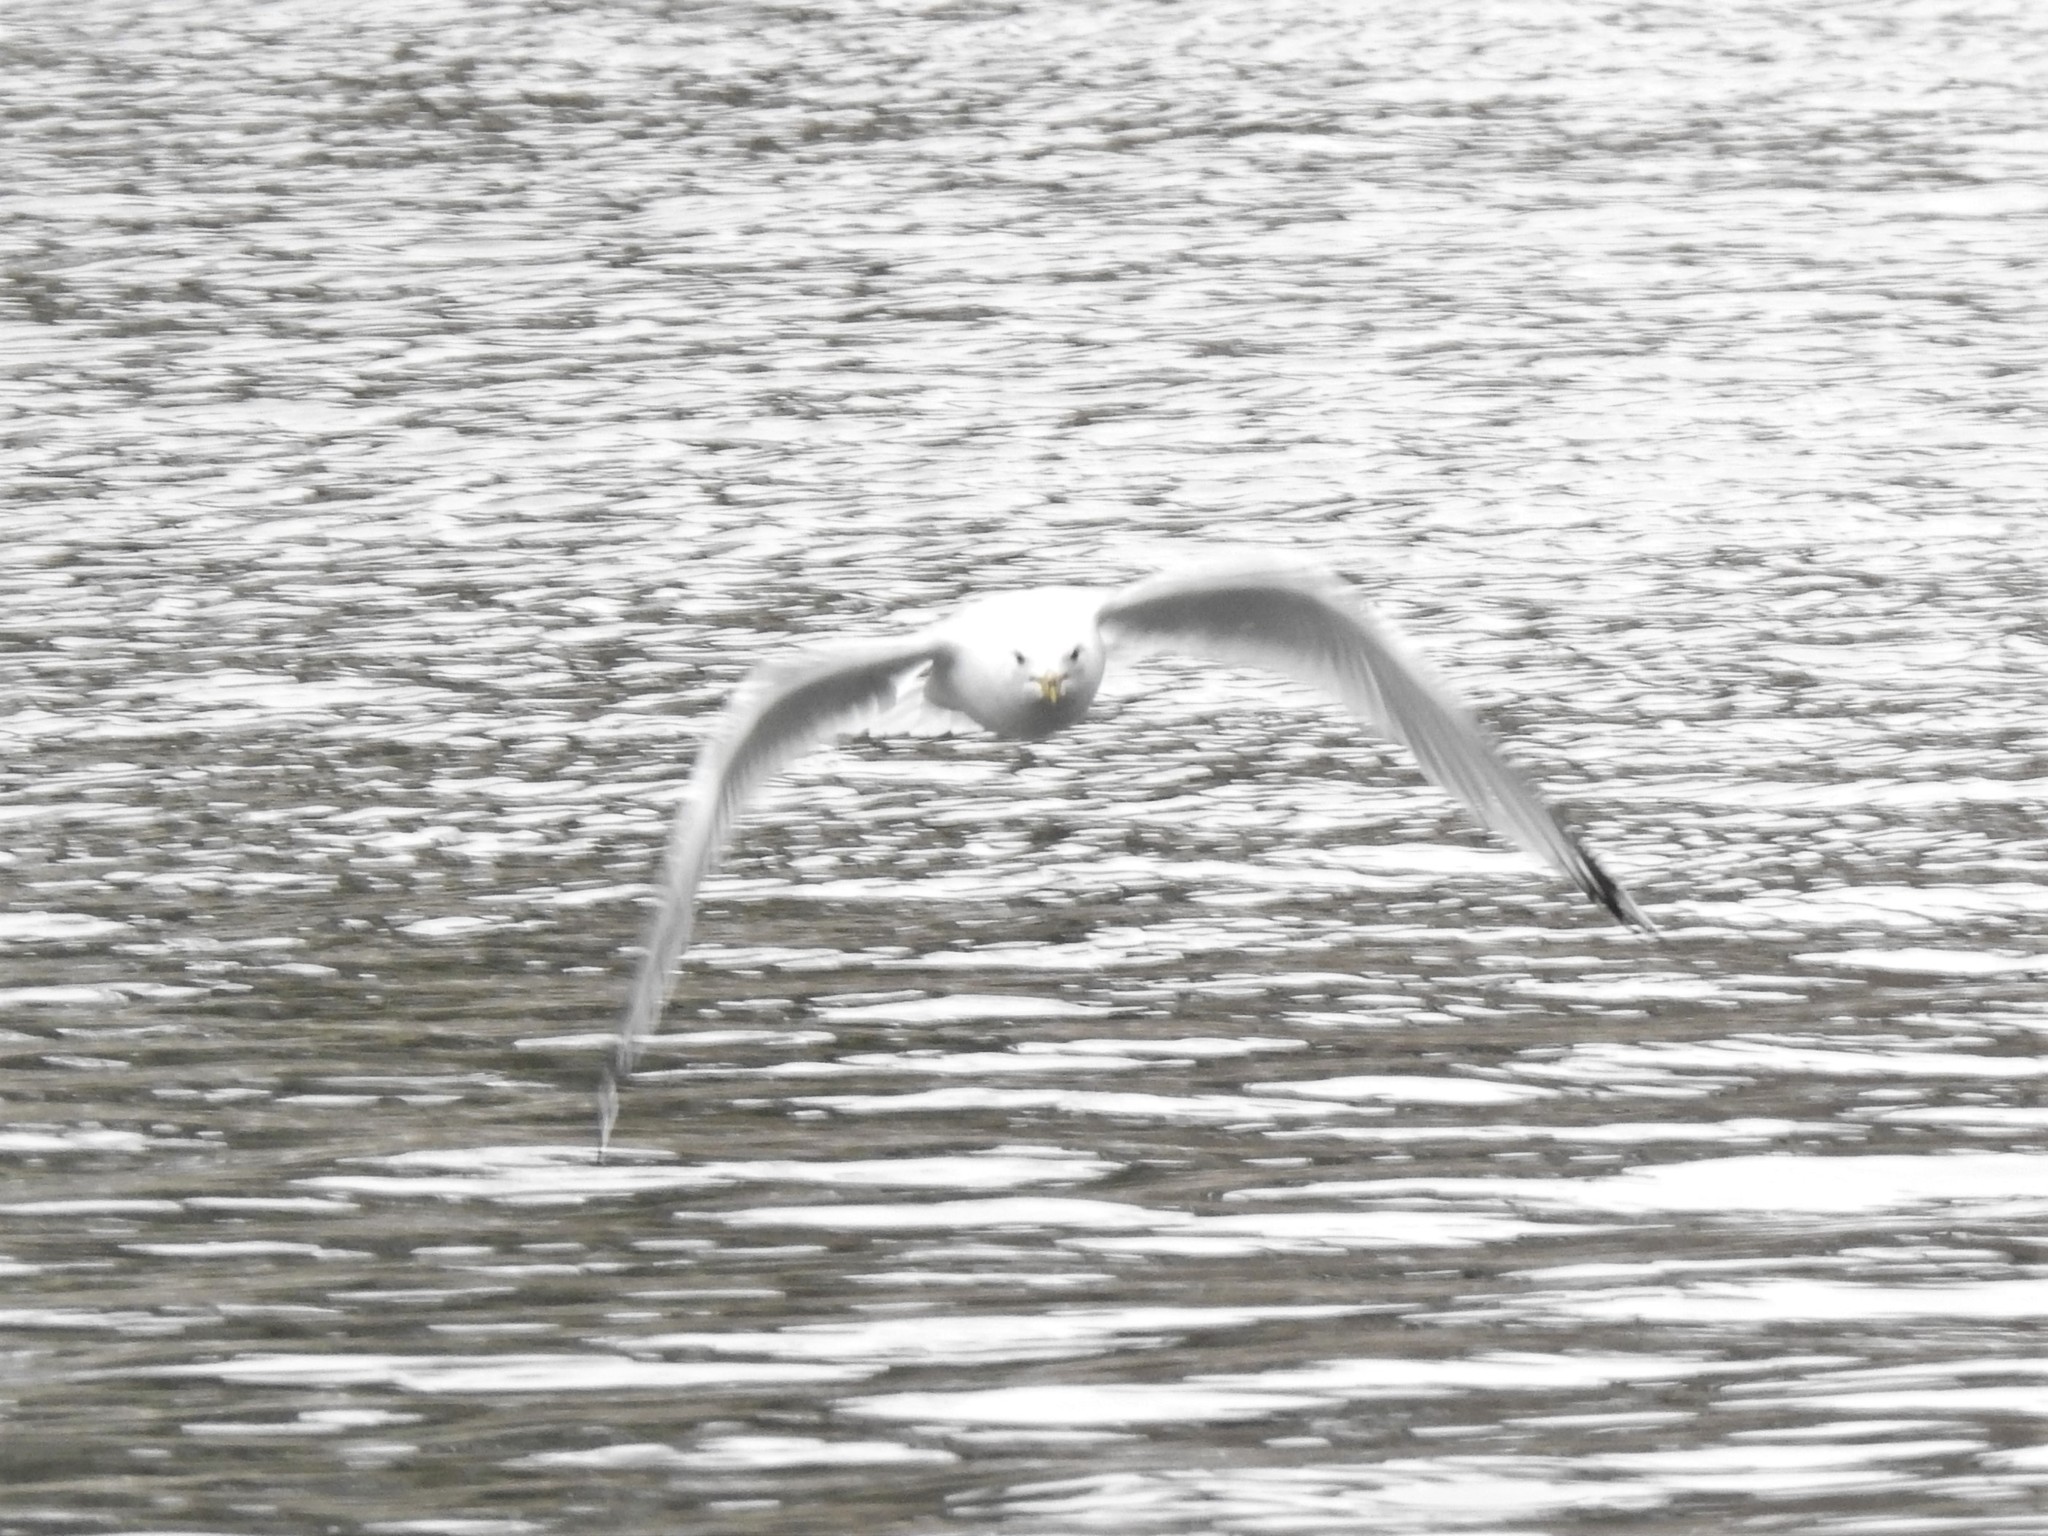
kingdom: Animalia
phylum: Chordata
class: Aves
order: Charadriiformes
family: Laridae
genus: Larus
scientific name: Larus delawarensis
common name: Ring-billed gull
